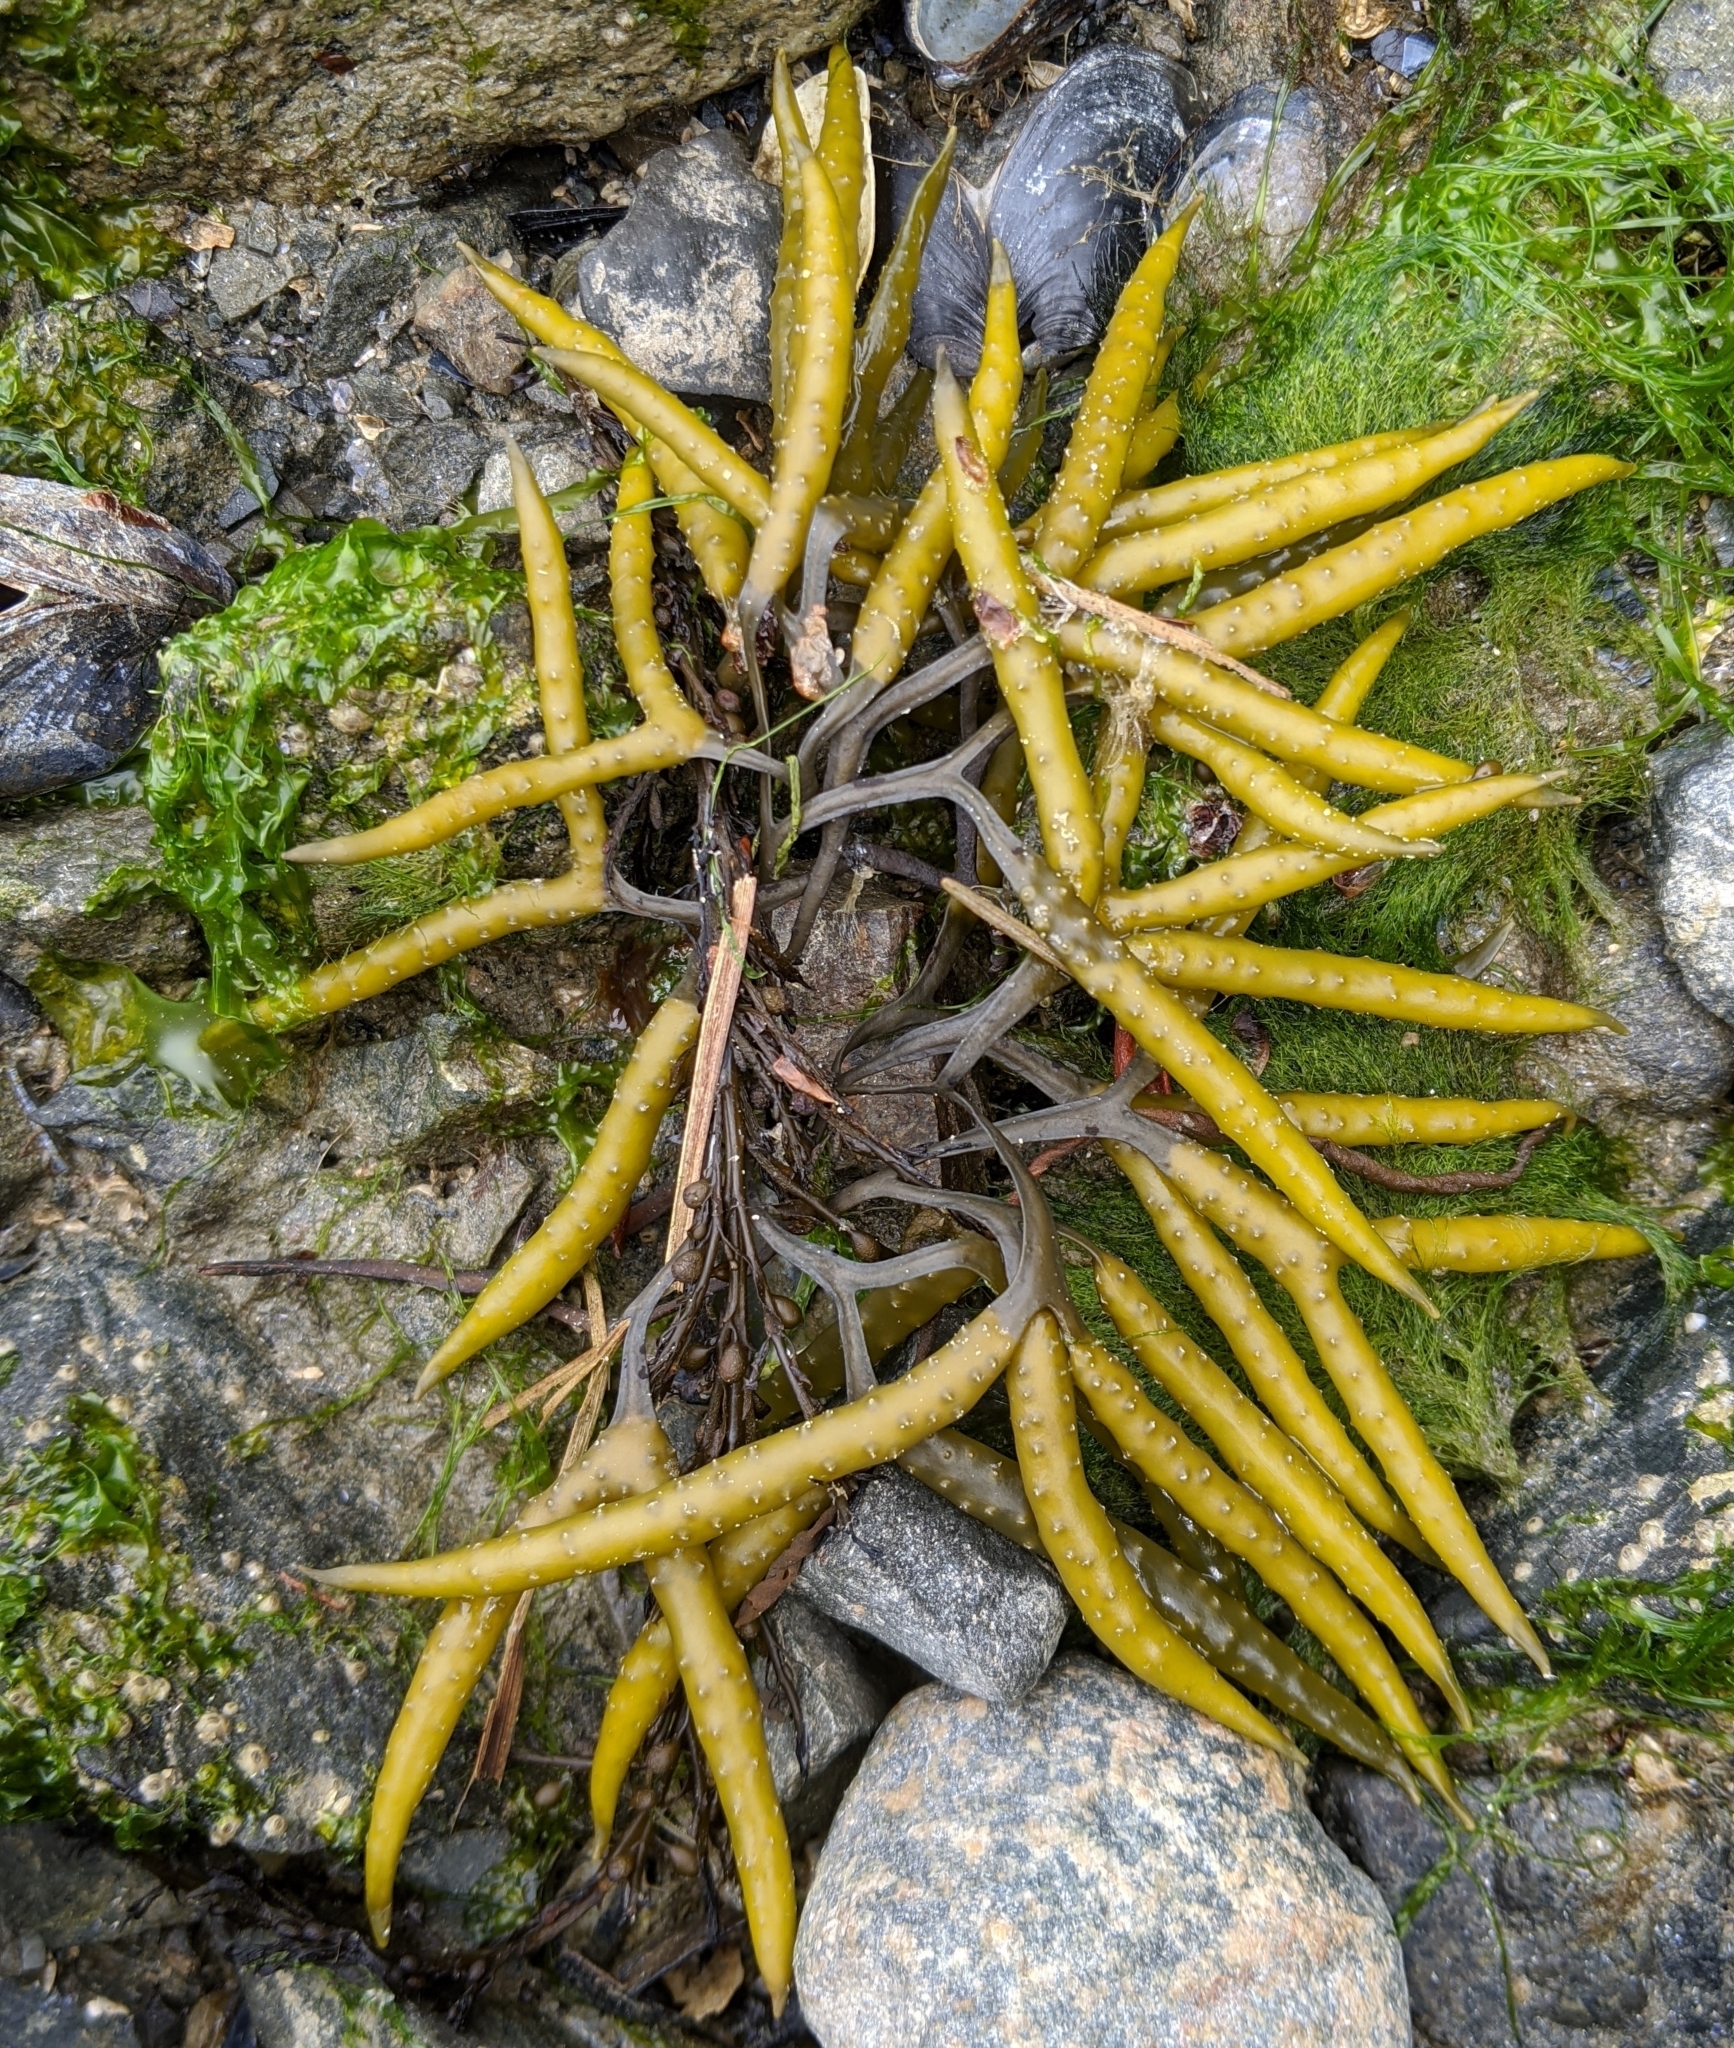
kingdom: Chromista
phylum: Ochrophyta
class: Phaeophyceae
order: Fucales
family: Fucaceae
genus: Fucus
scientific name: Fucus distichus
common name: Rockweed
